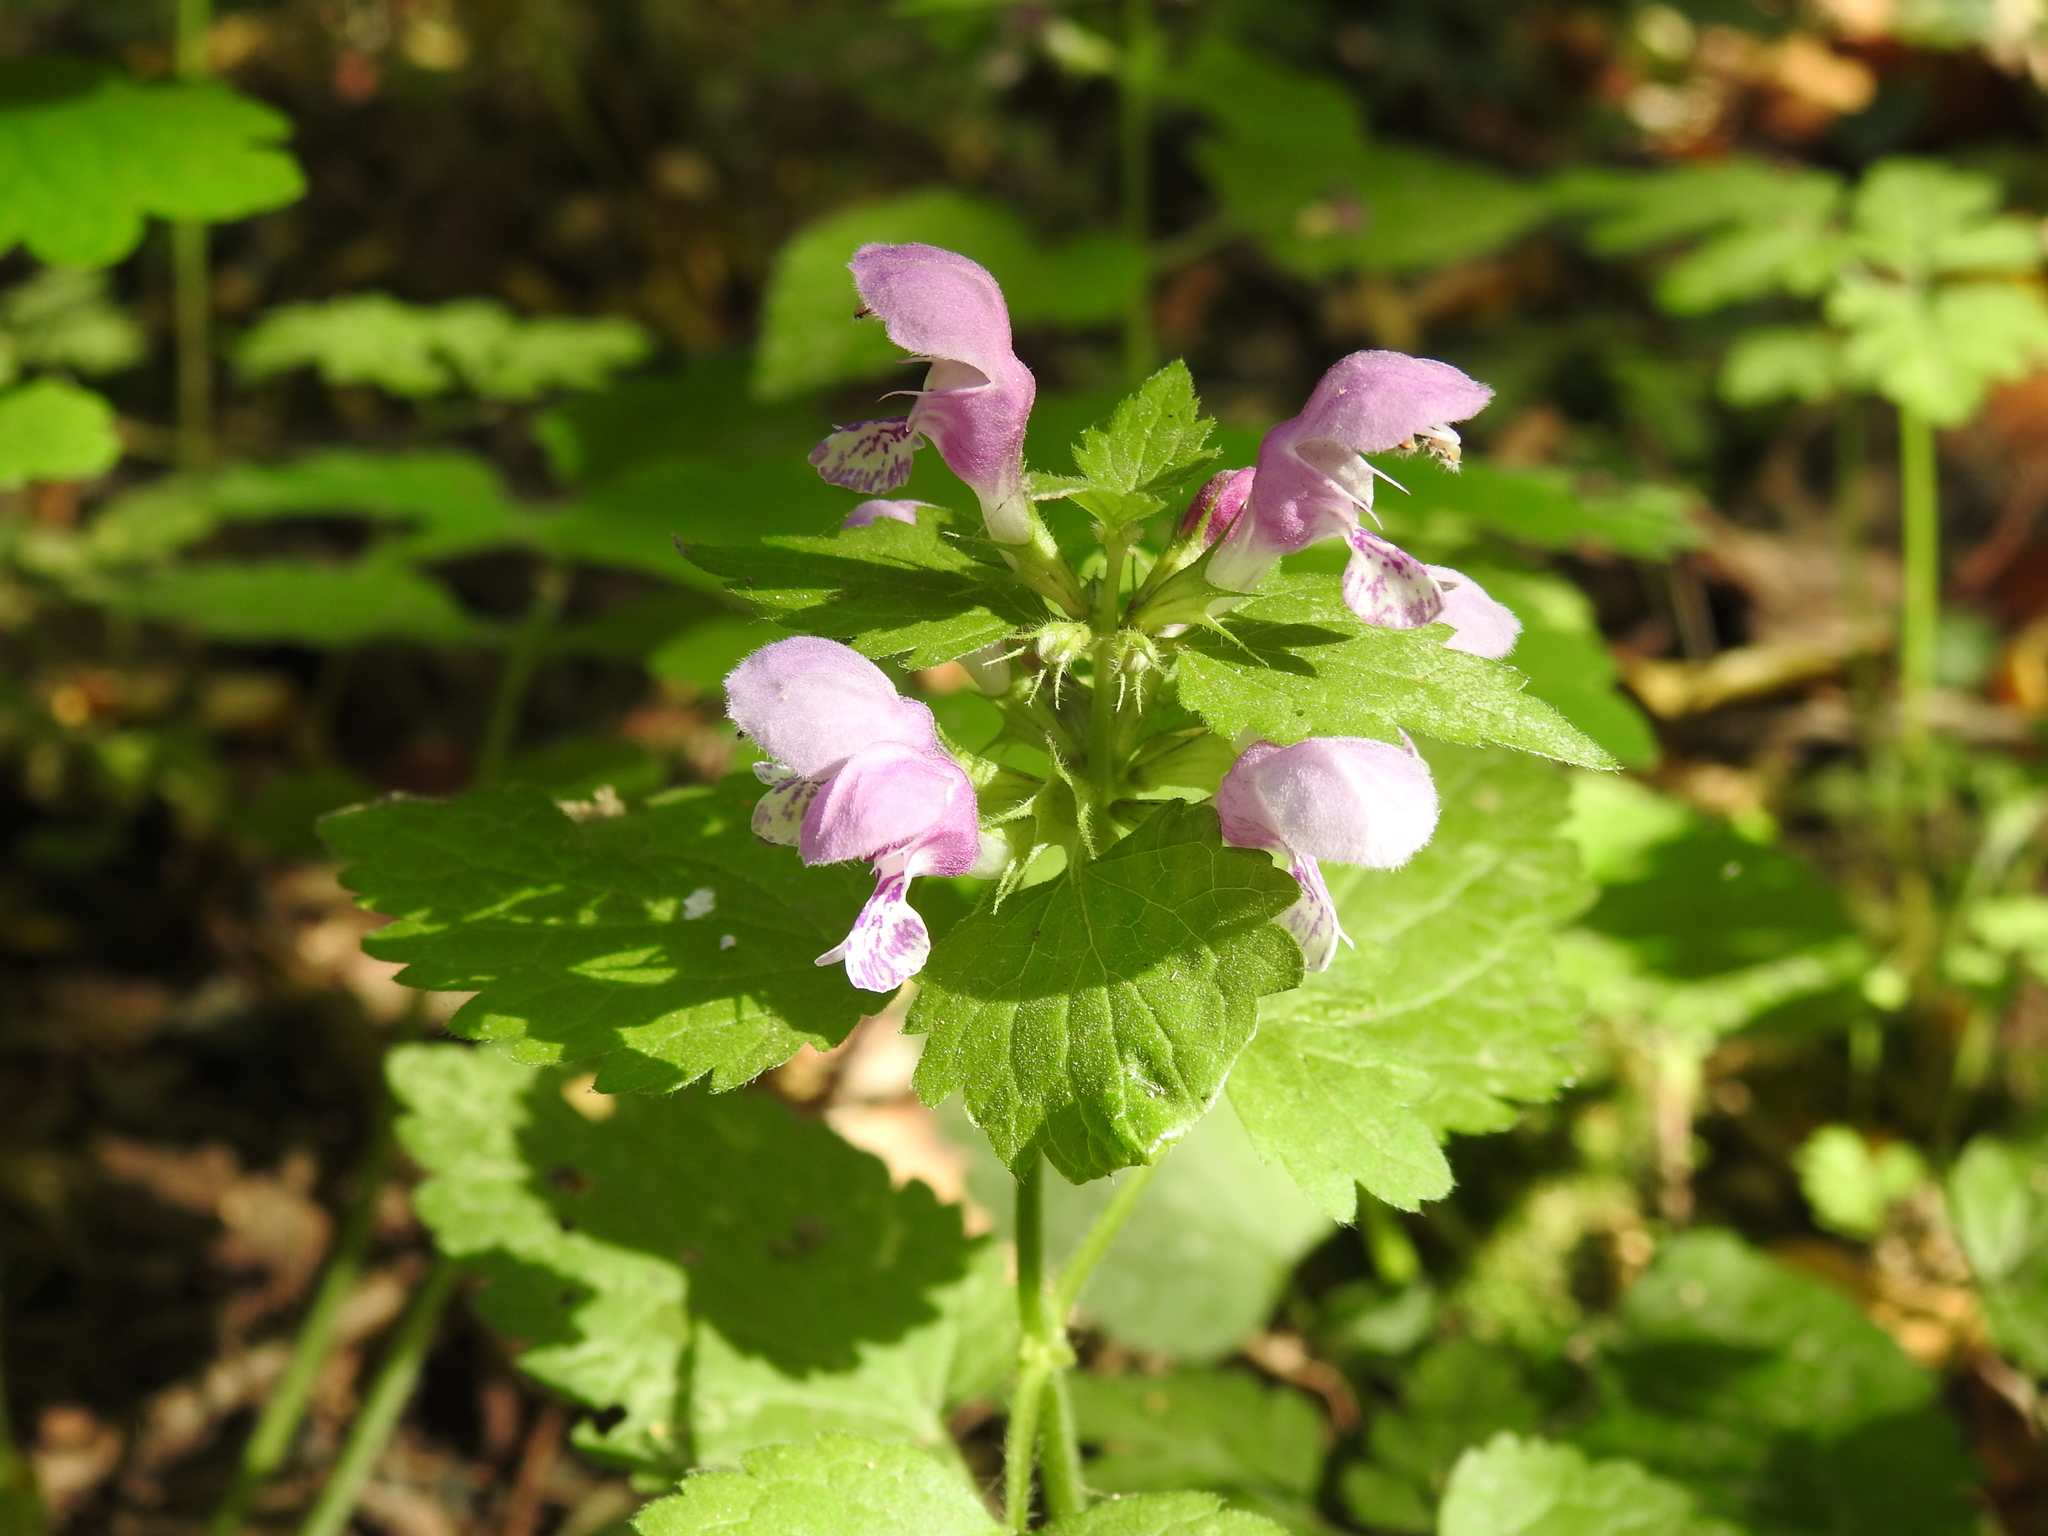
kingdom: Plantae
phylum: Tracheophyta
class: Magnoliopsida
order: Lamiales
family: Lamiaceae
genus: Lamium
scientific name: Lamium maculatum
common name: Spotted dead-nettle
